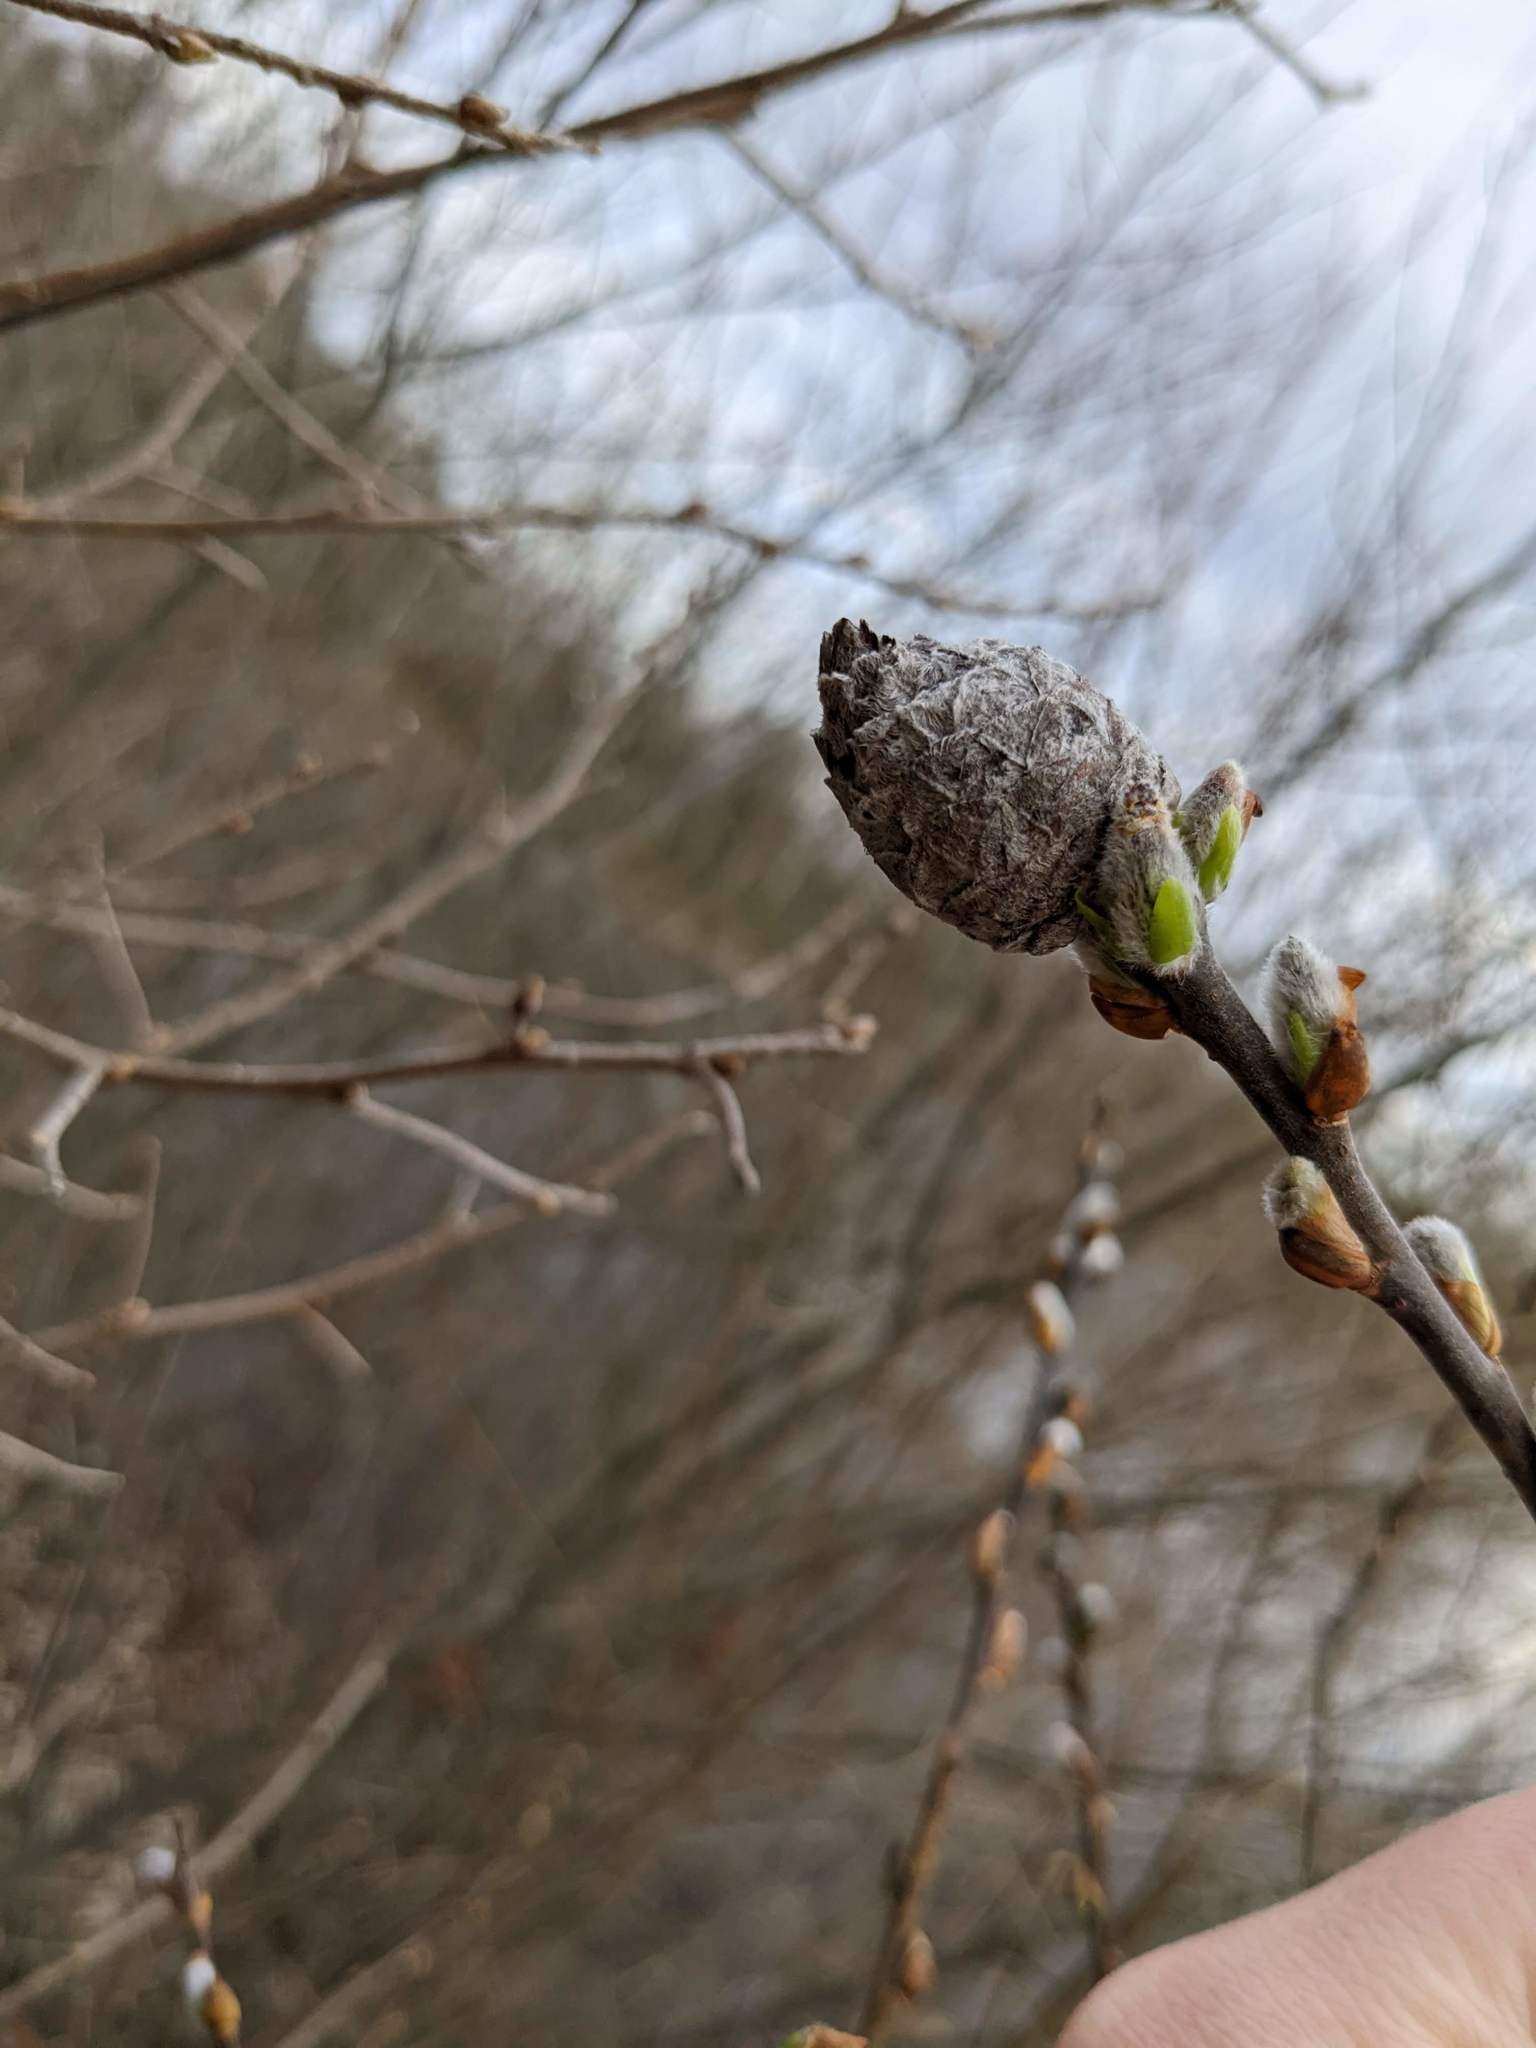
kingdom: Animalia
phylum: Arthropoda
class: Insecta
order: Diptera
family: Cecidomyiidae
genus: Rabdophaga
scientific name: Rabdophaga strobiloides
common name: Willow pinecone gall midge
